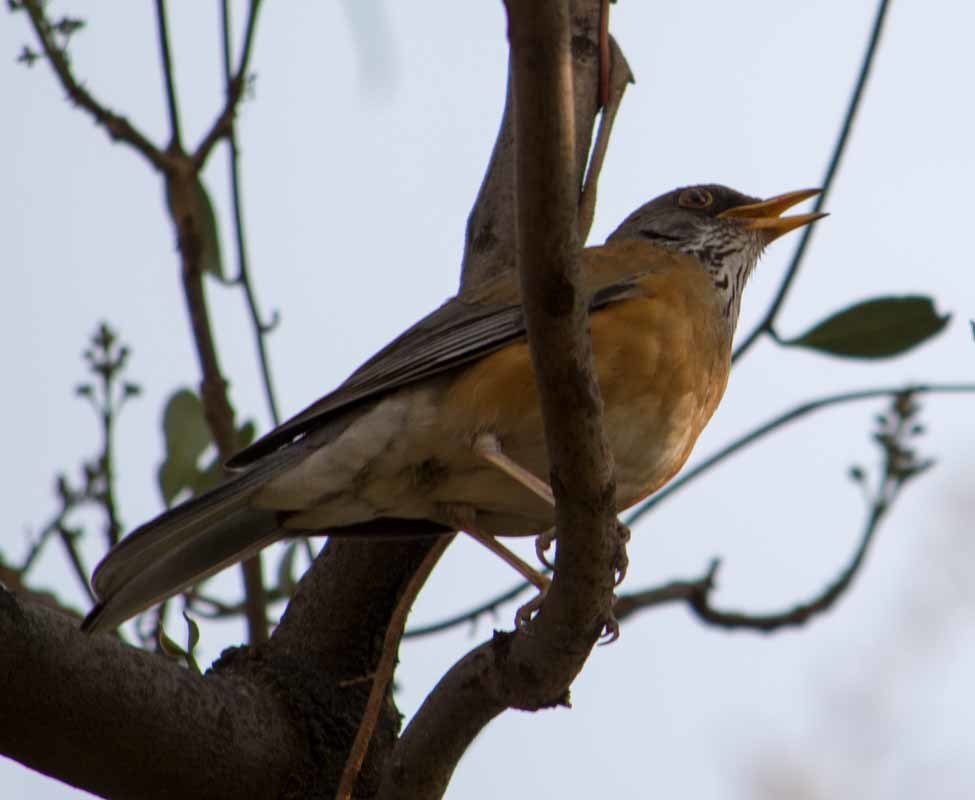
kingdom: Animalia
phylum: Chordata
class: Aves
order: Passeriformes
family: Turdidae
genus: Turdus
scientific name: Turdus rufopalliatus
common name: Rufous-backed robin
